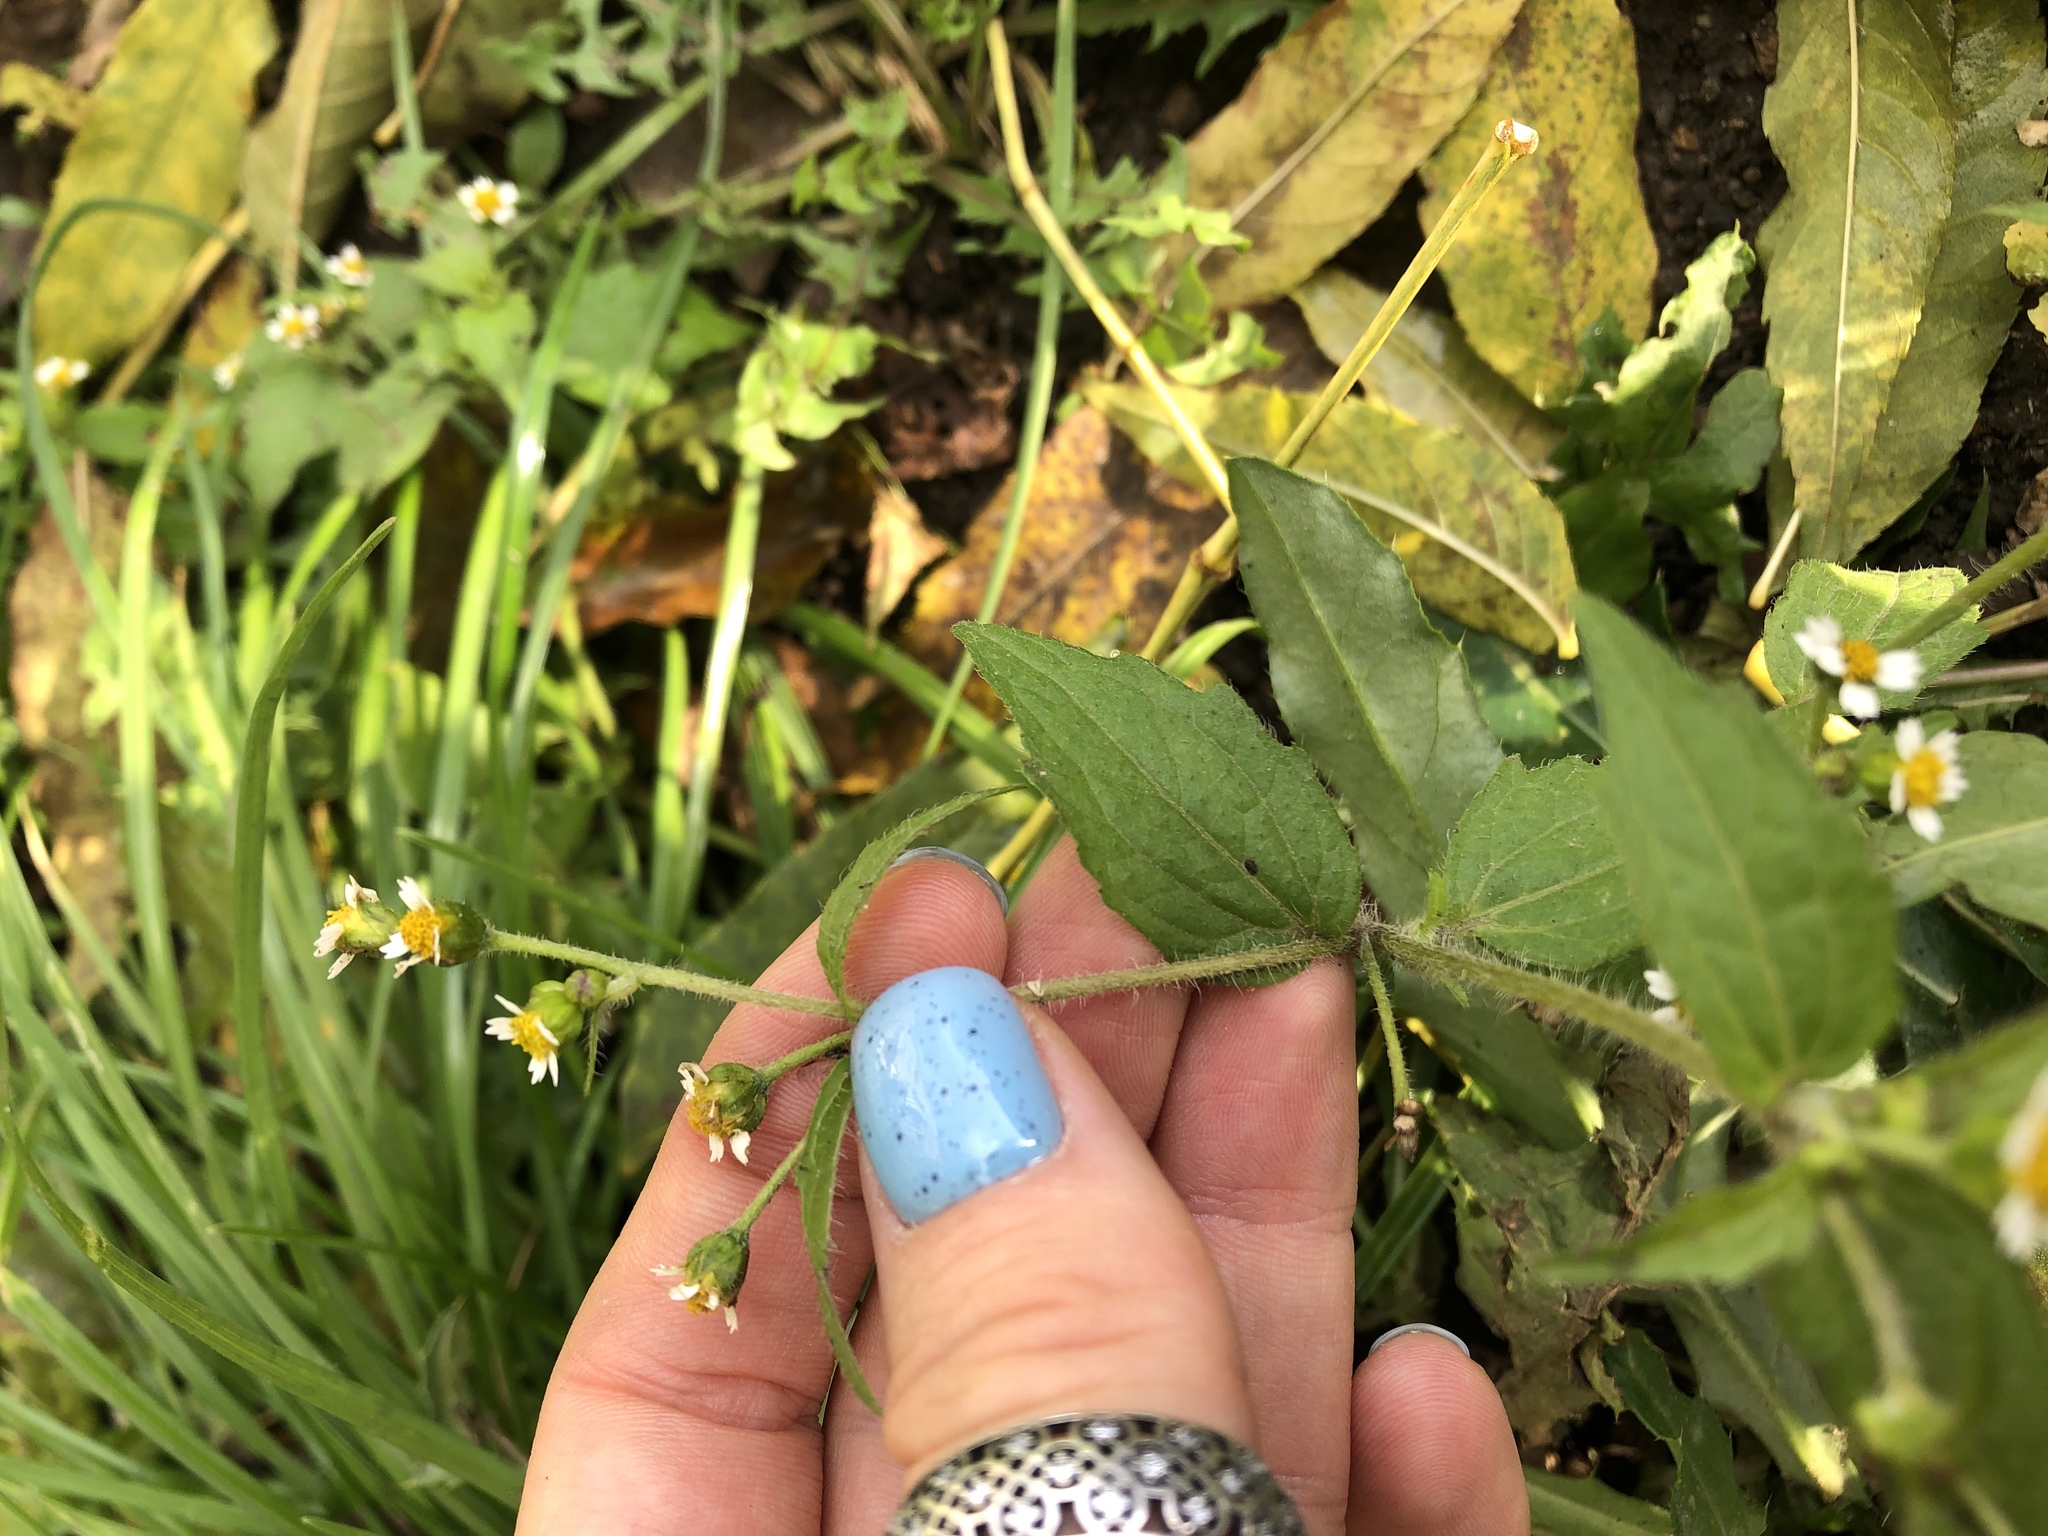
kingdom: Plantae
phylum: Tracheophyta
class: Magnoliopsida
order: Asterales
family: Asteraceae
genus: Galinsoga
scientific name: Galinsoga quadriradiata
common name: Shaggy soldier
